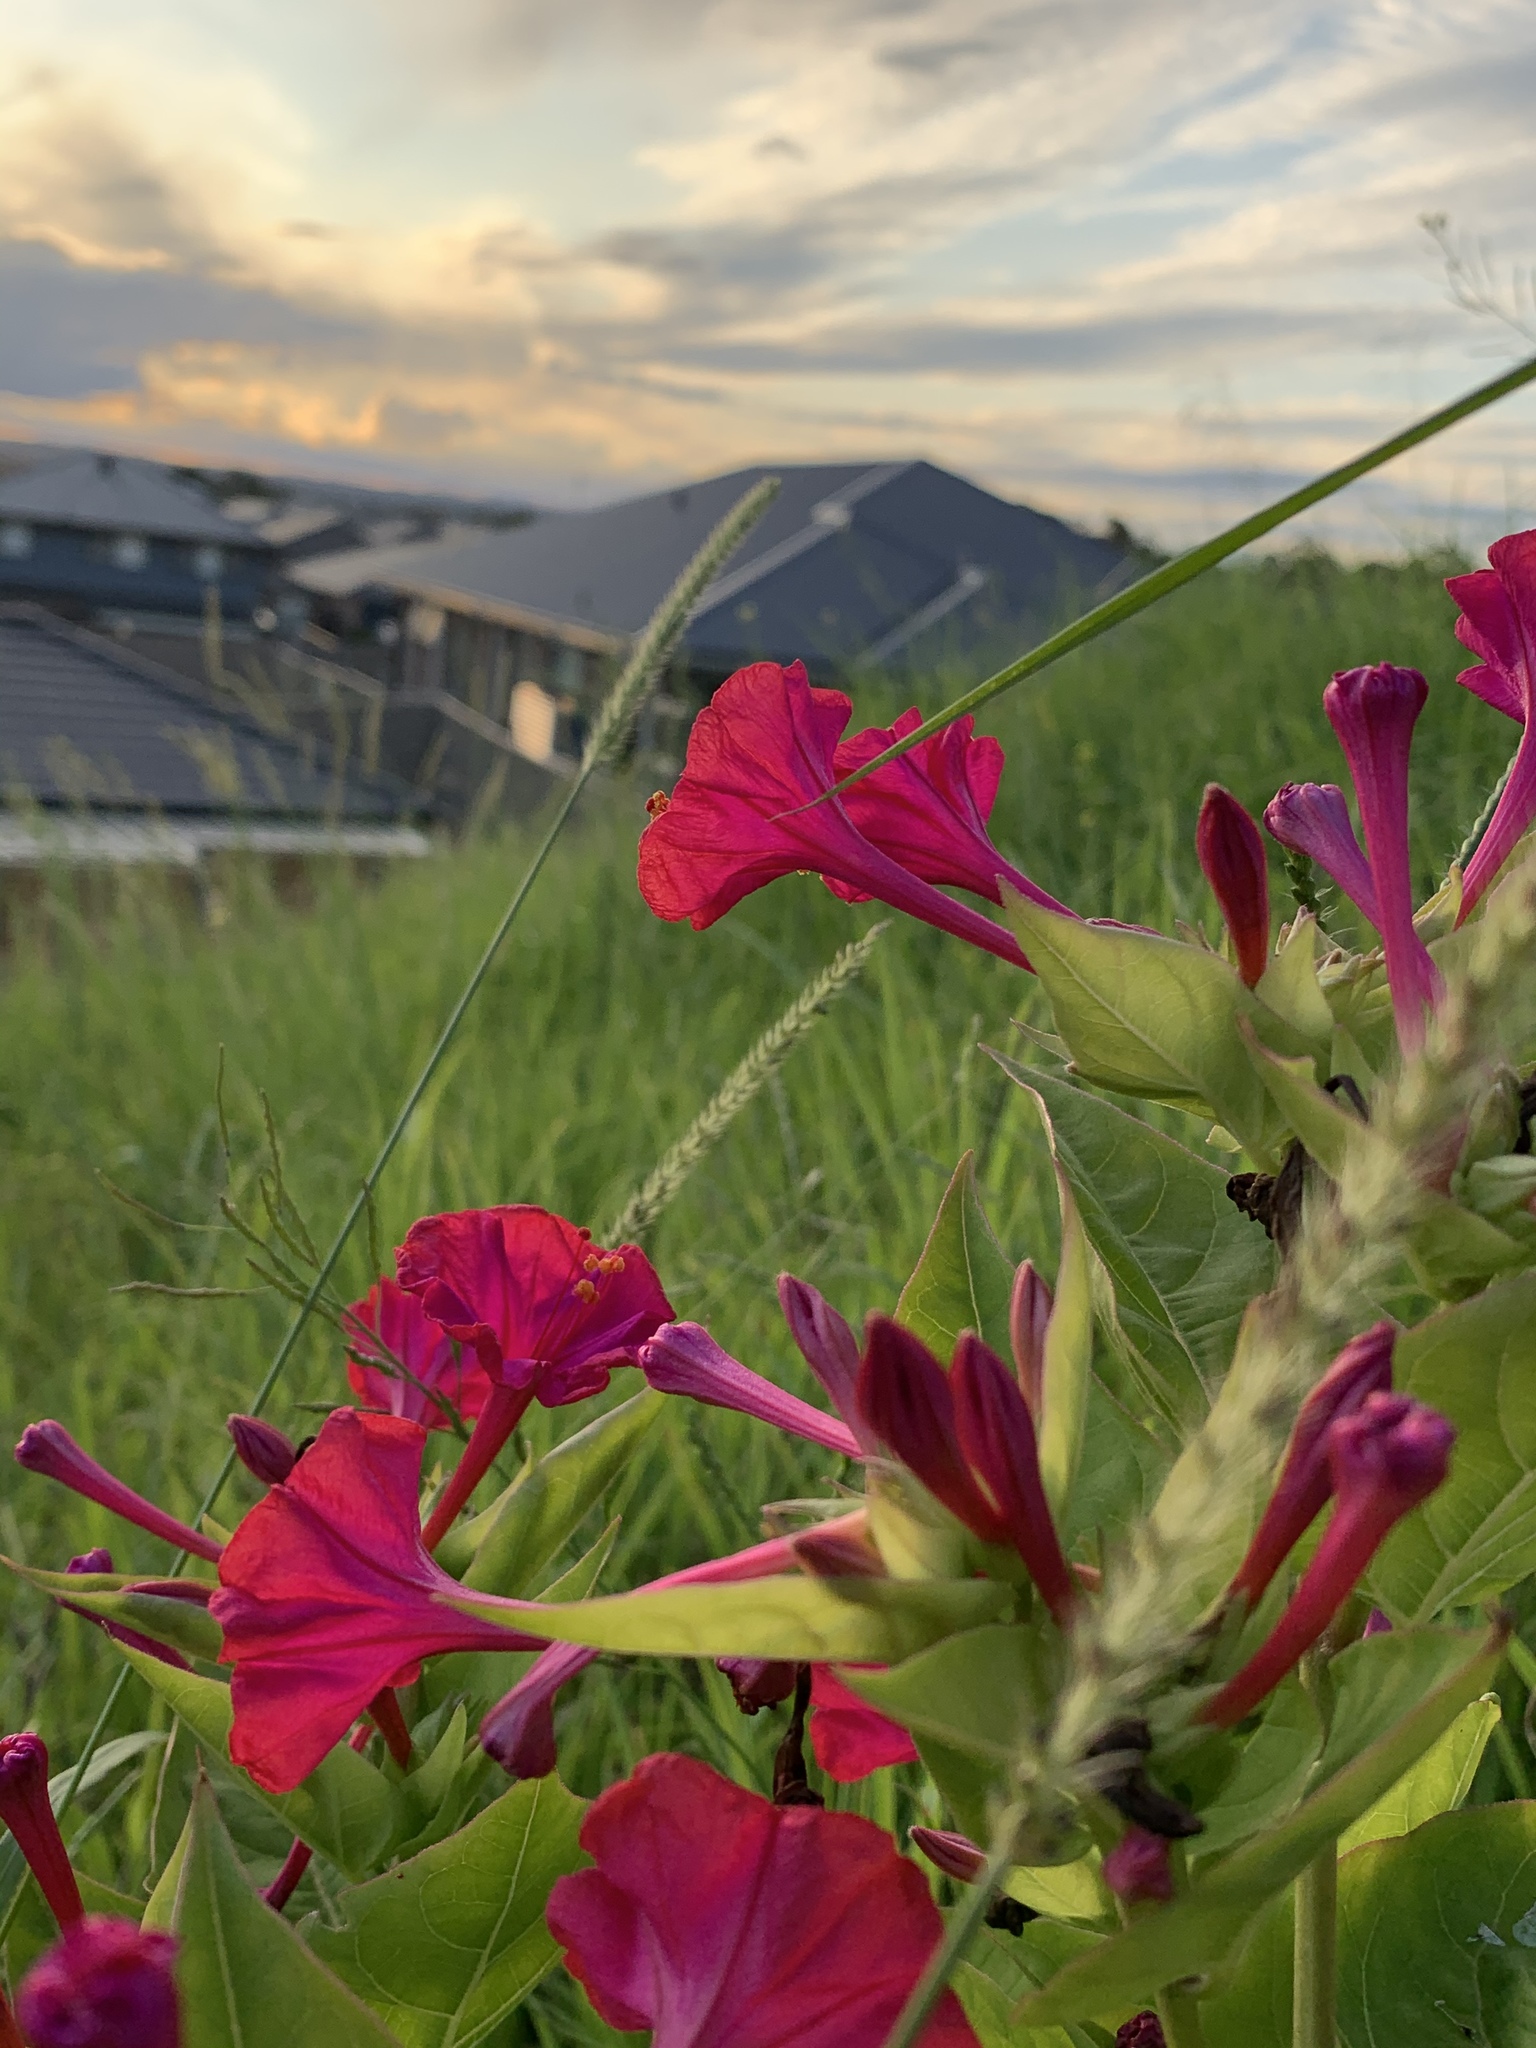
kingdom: Plantae
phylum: Tracheophyta
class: Magnoliopsida
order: Caryophyllales
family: Nyctaginaceae
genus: Mirabilis
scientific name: Mirabilis jalapa
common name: Marvel-of-peru
